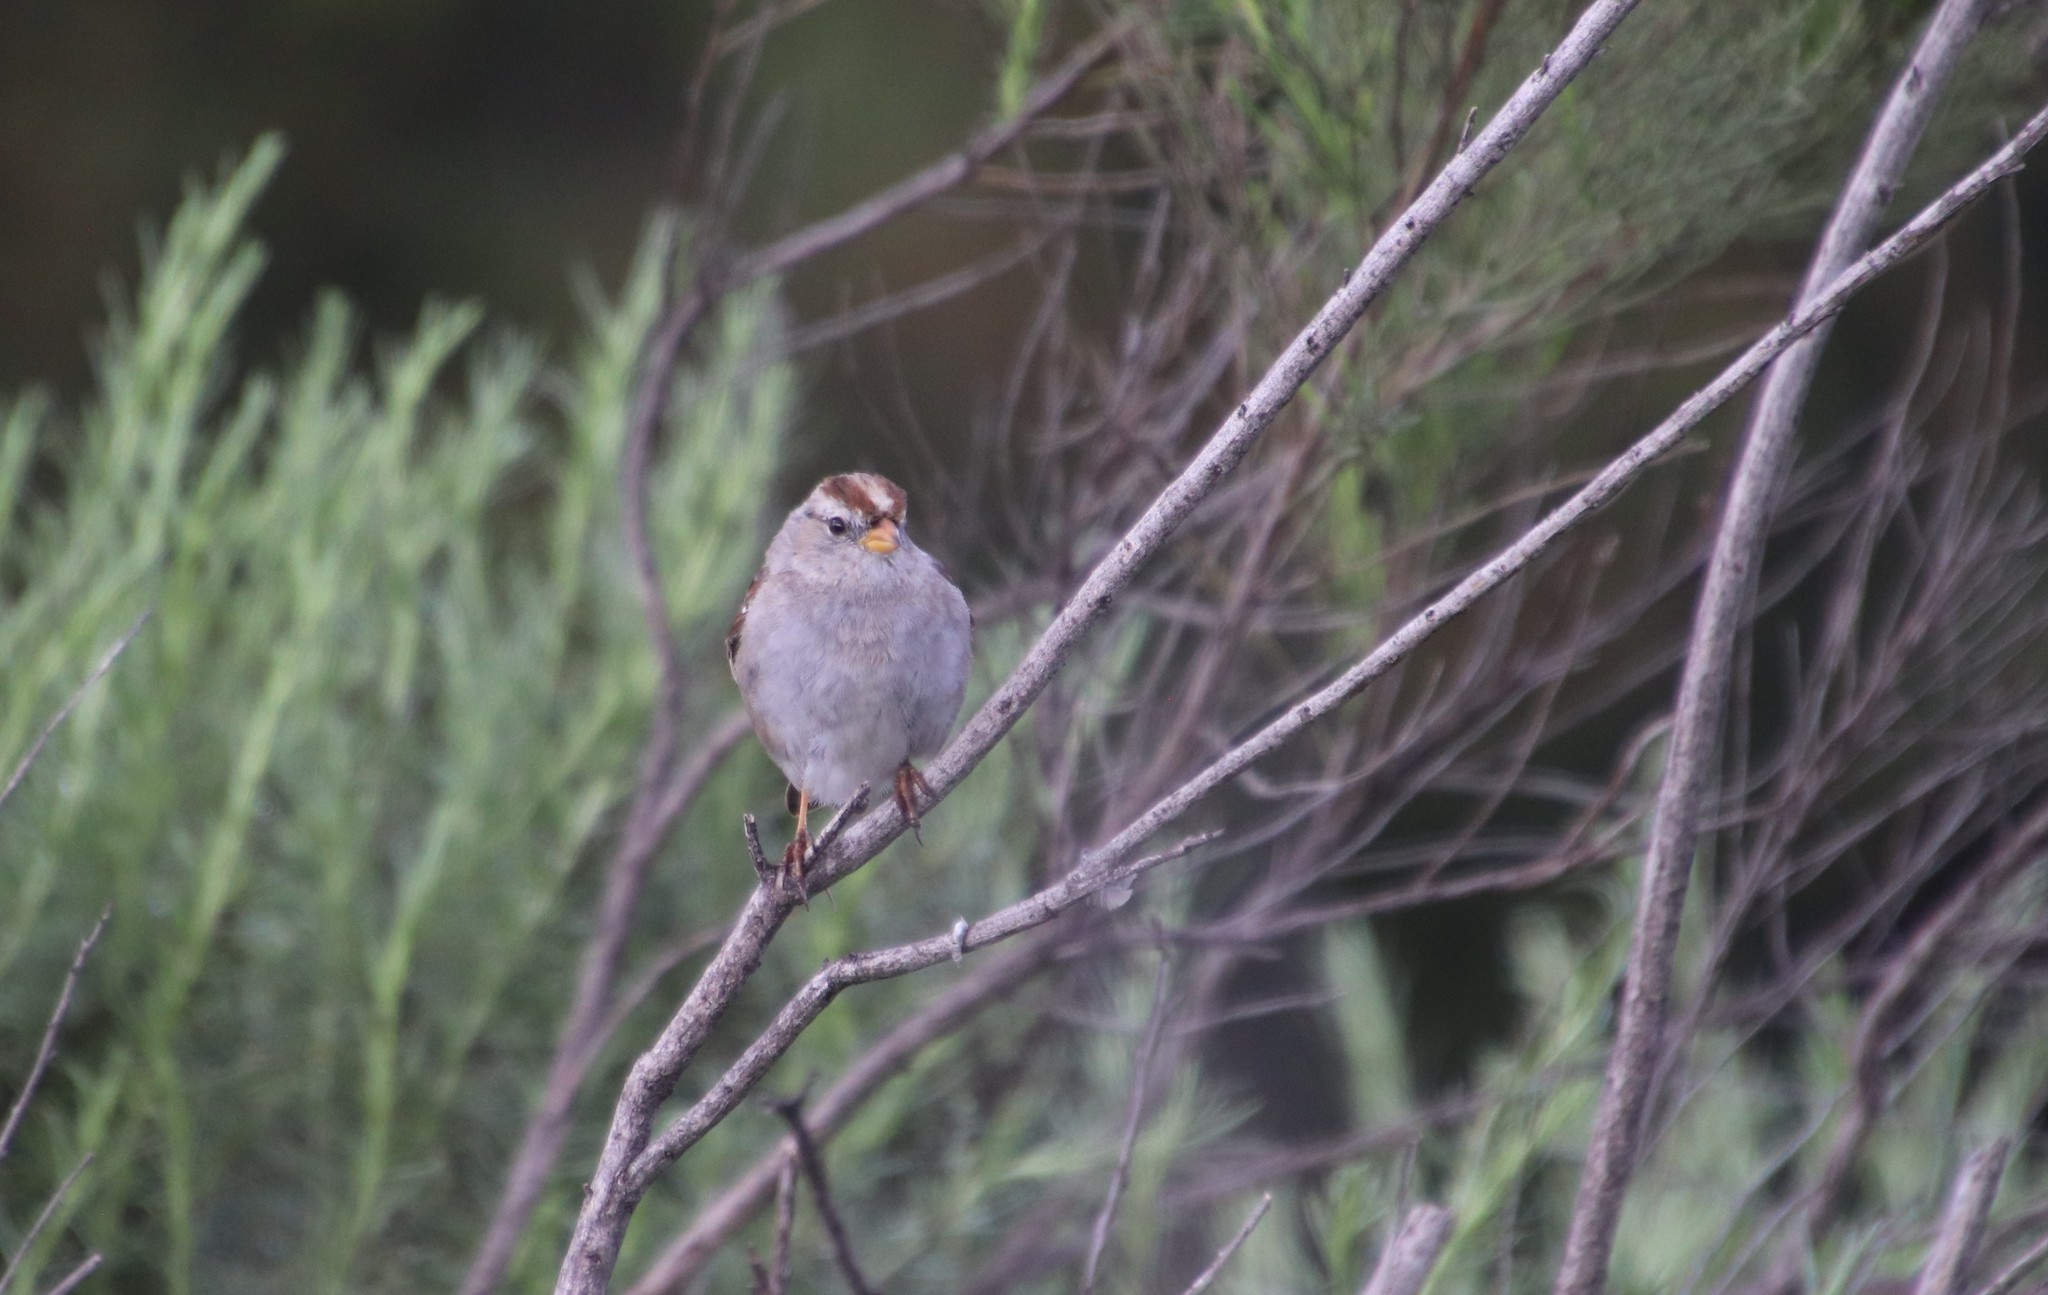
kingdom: Animalia
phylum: Chordata
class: Aves
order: Passeriformes
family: Passerellidae
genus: Zonotrichia
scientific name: Zonotrichia leucophrys
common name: White-crowned sparrow
